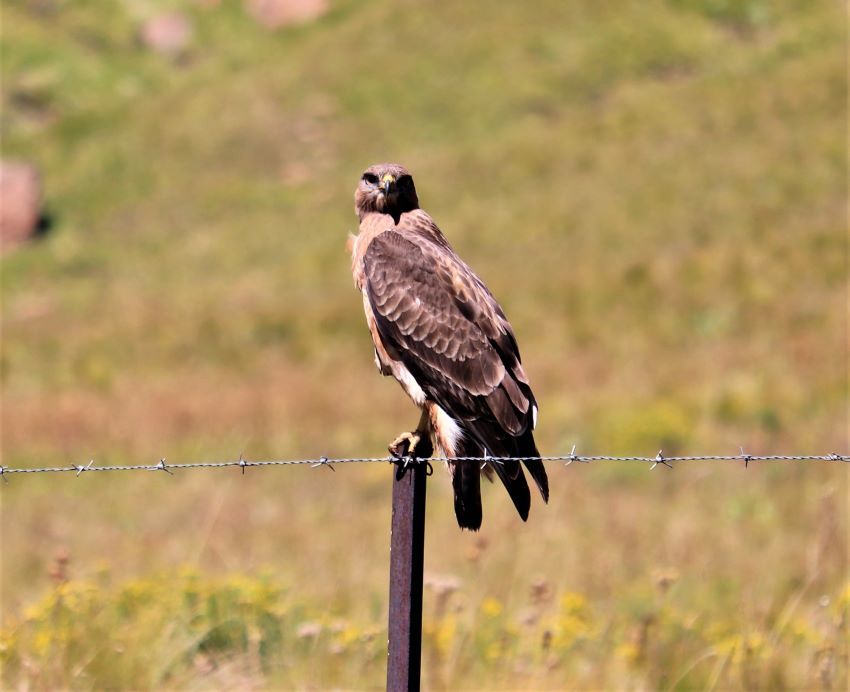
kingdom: Animalia
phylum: Chordata
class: Aves
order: Accipitriformes
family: Accipitridae
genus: Buteo
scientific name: Buteo rufofuscus
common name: Jackal buzzard
